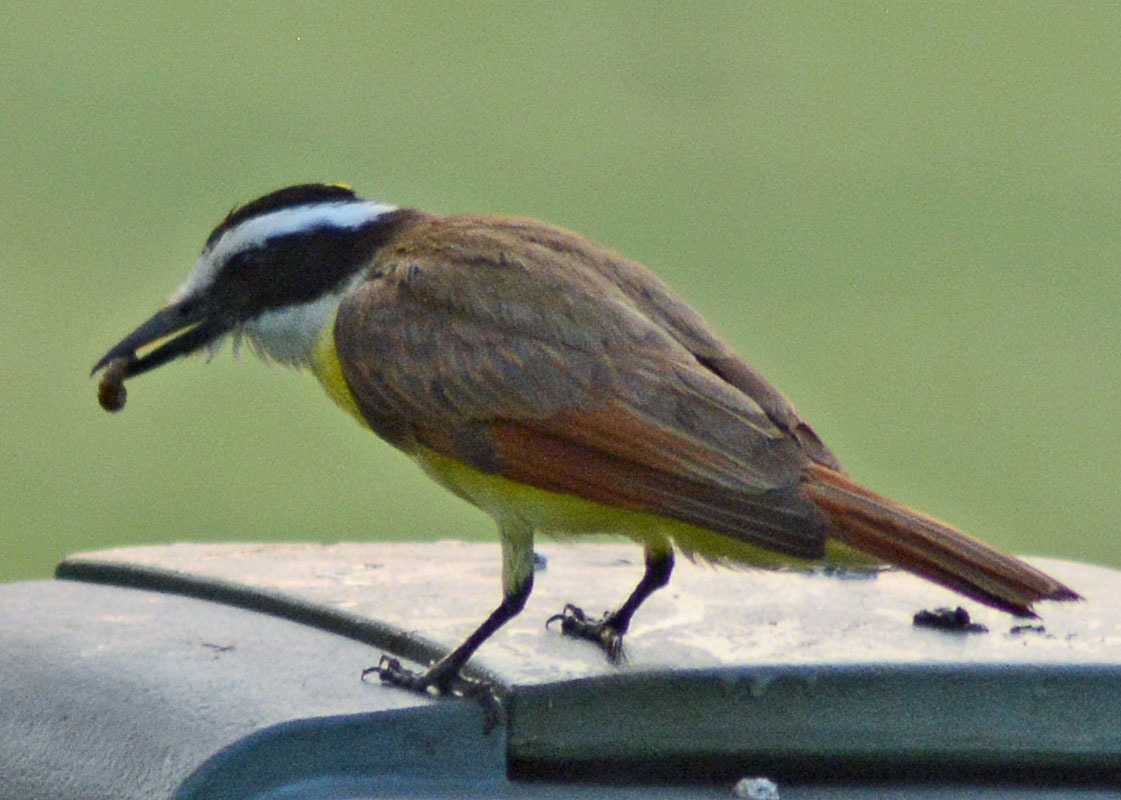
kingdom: Animalia
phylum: Chordata
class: Aves
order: Passeriformes
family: Tyrannidae
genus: Pitangus
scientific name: Pitangus sulphuratus
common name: Great kiskadee
